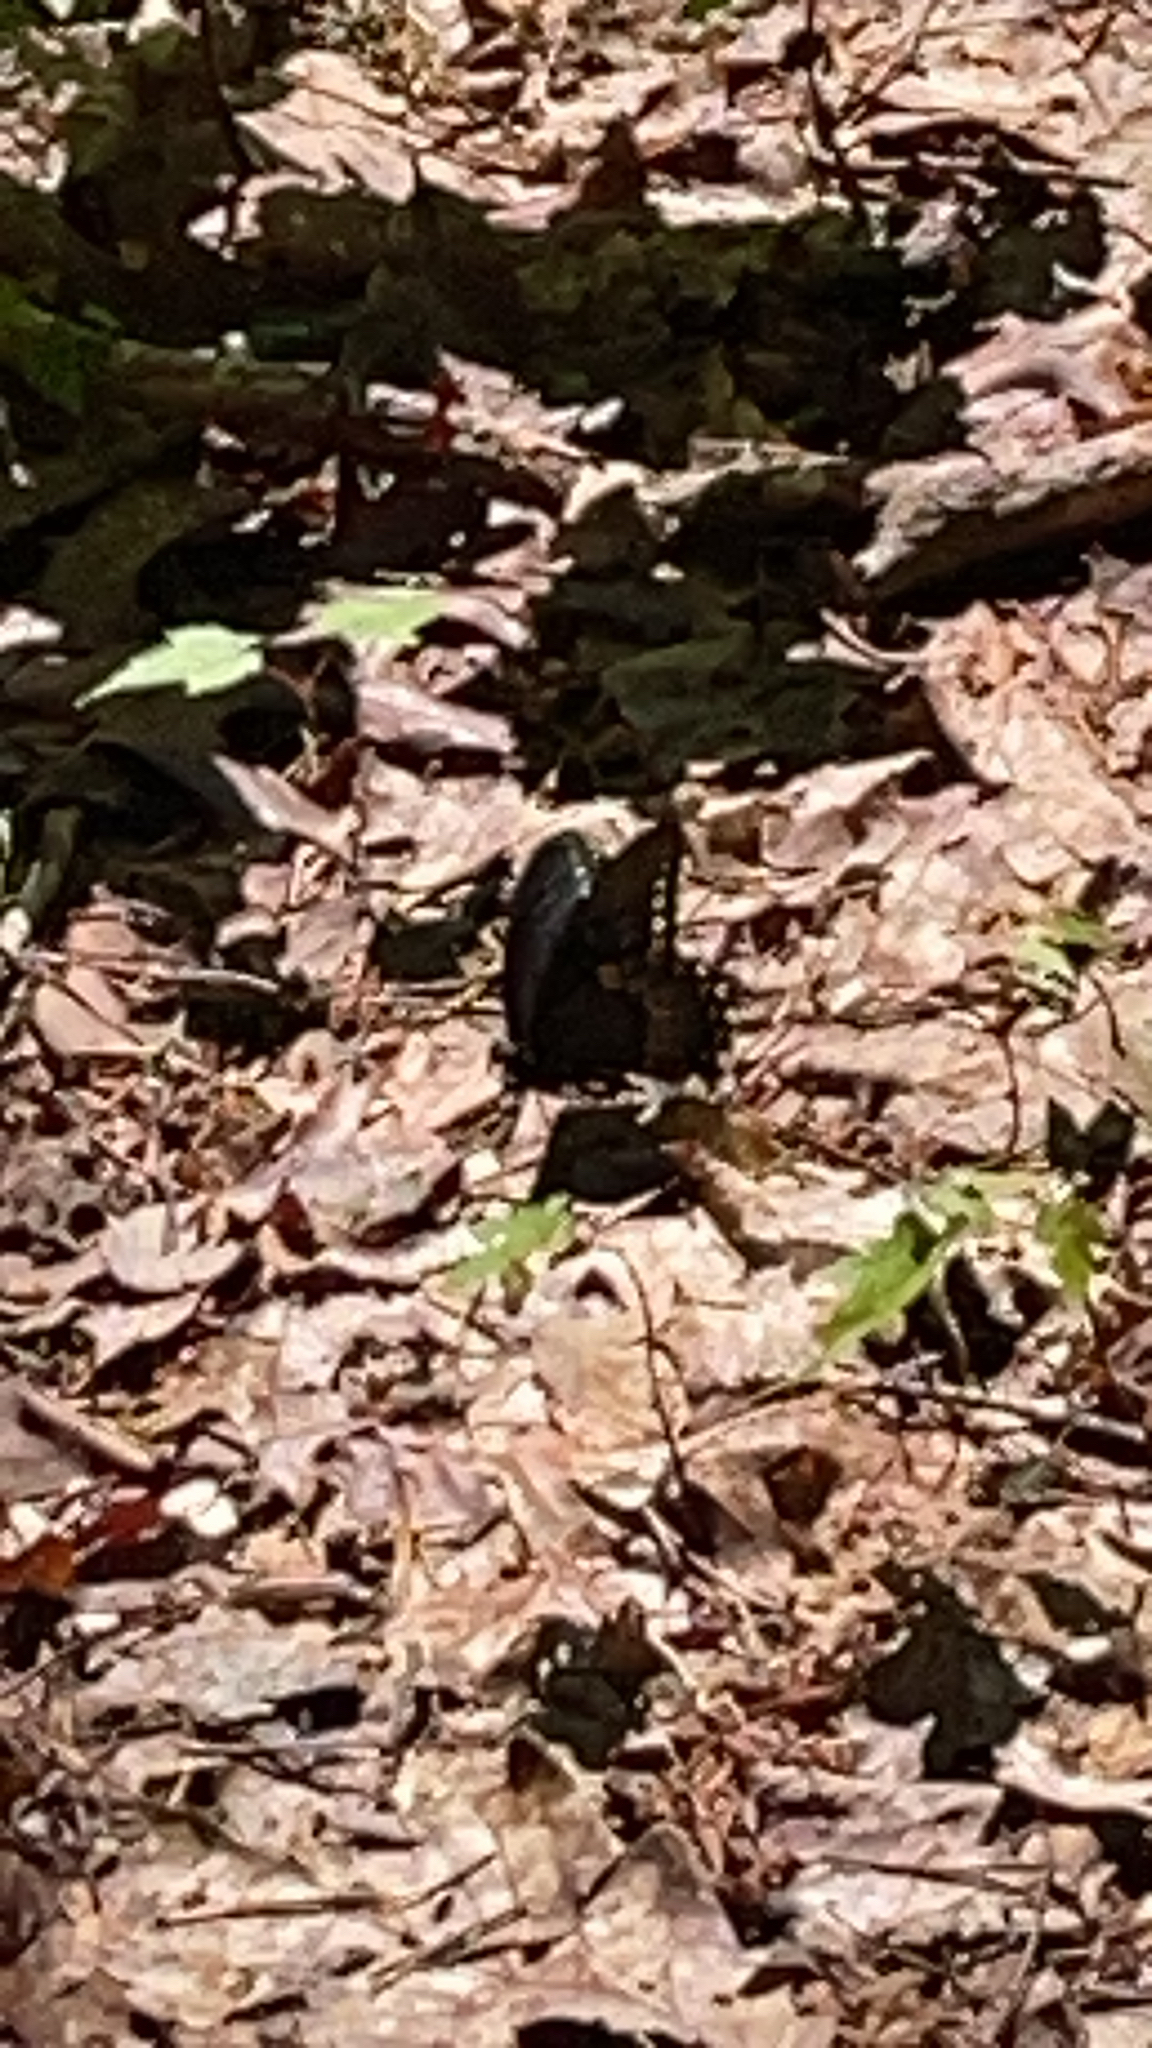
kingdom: Animalia
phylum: Arthropoda
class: Insecta
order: Lepidoptera
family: Papilionidae
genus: Papilio
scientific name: Papilio troilus
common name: Spicebush swallowtail
